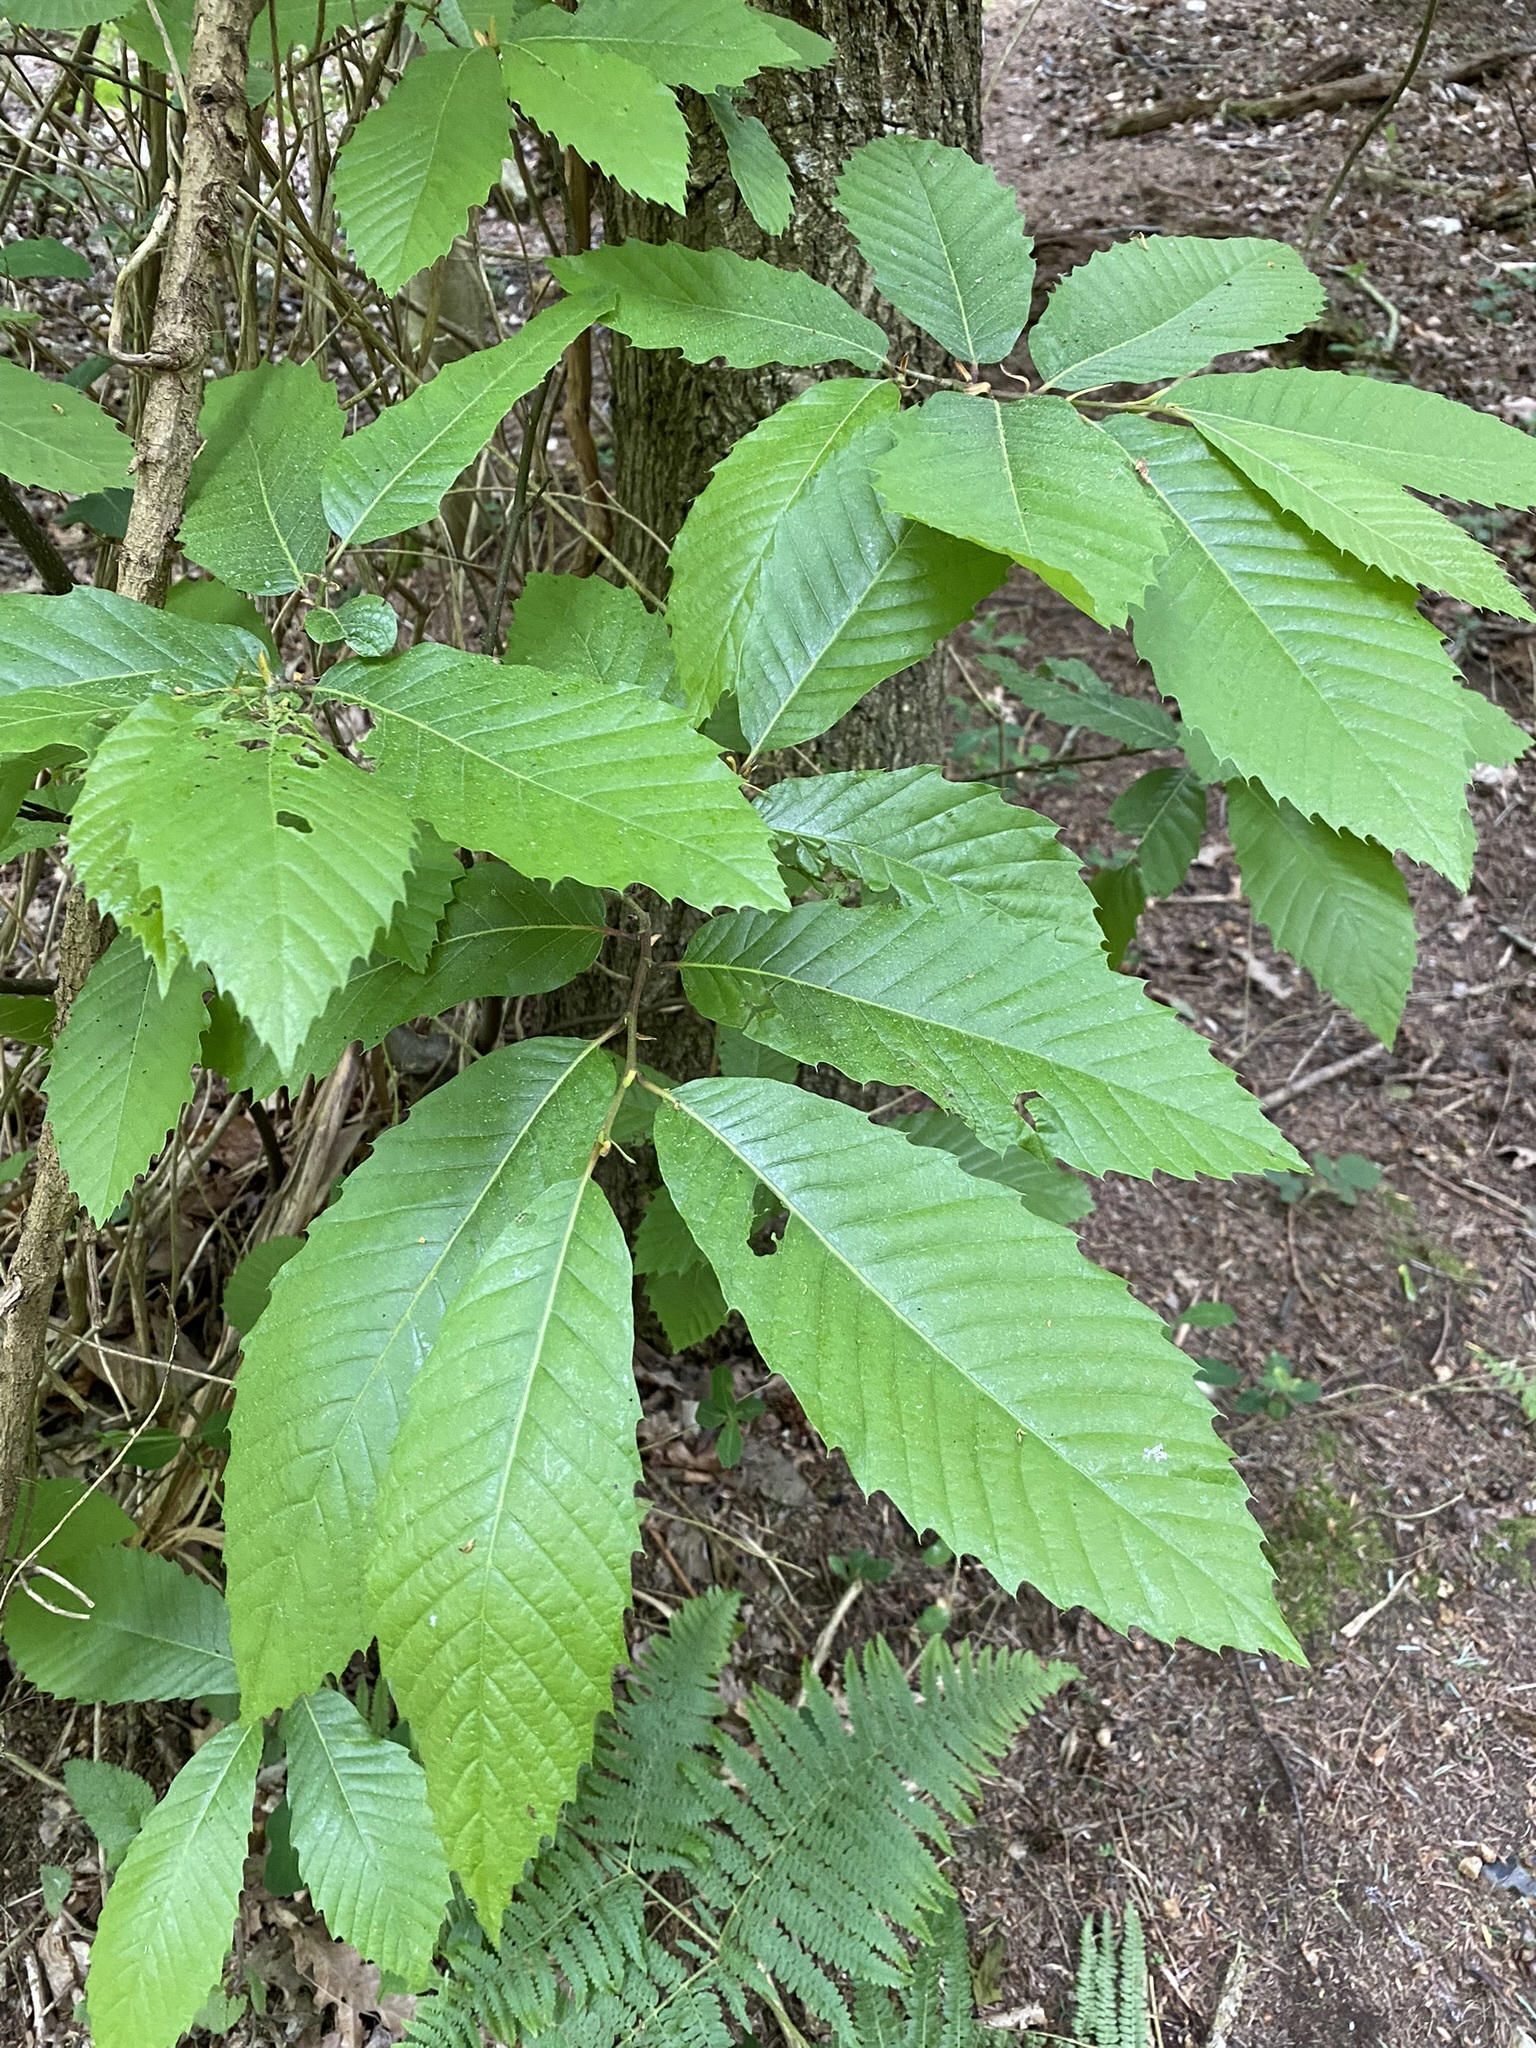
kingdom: Plantae
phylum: Tracheophyta
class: Magnoliopsida
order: Fagales
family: Fagaceae
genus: Castanea
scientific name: Castanea sativa
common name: Sweet chestnut
